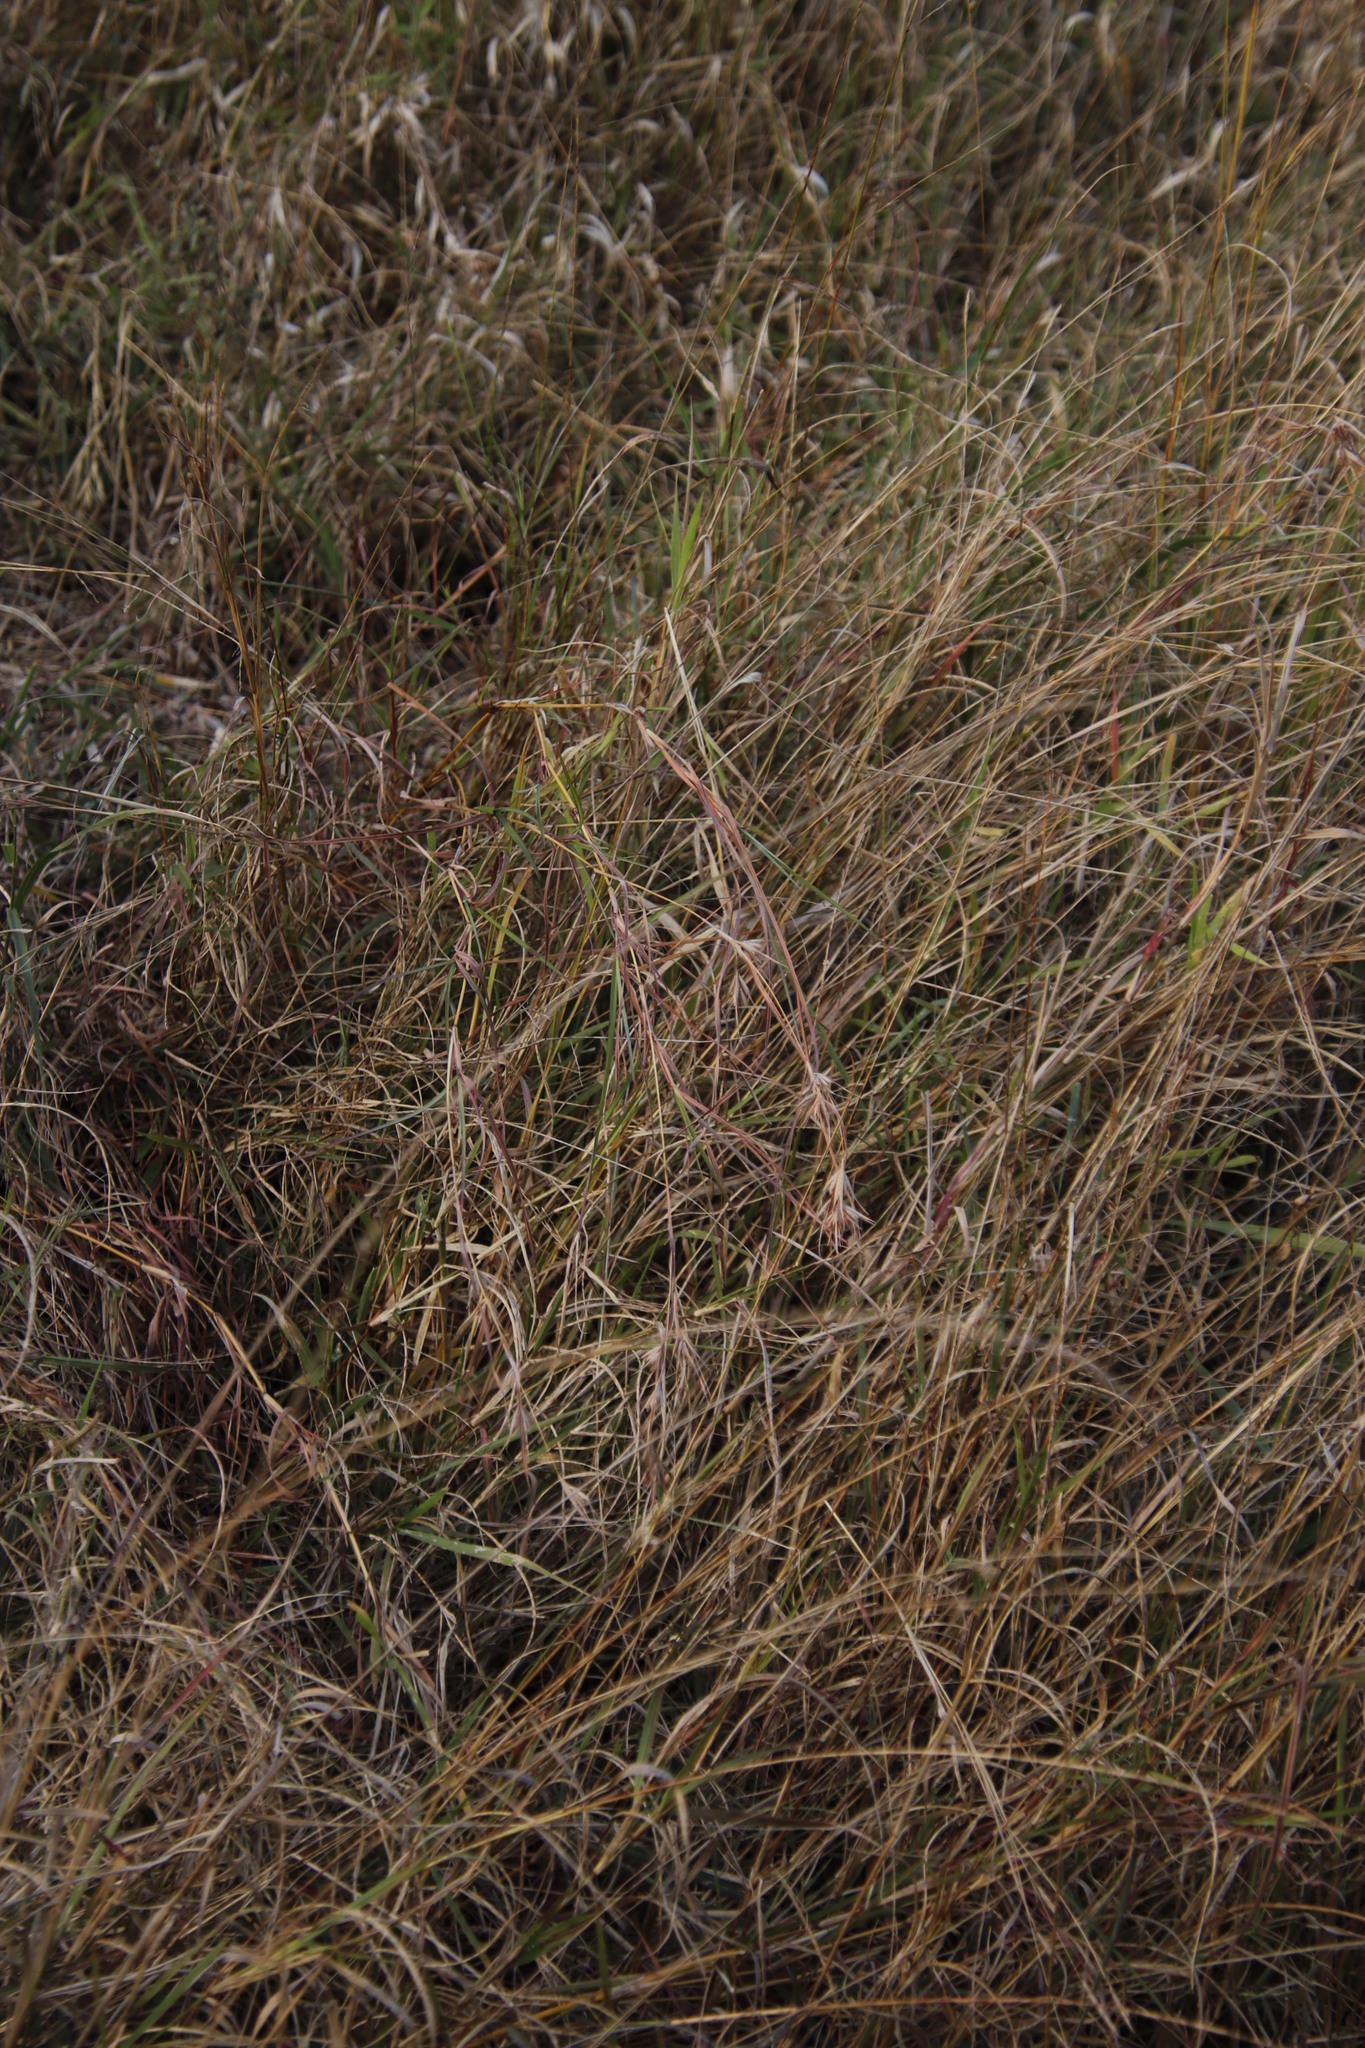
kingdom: Plantae
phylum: Tracheophyta
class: Liliopsida
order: Poales
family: Poaceae
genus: Themeda
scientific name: Themeda triandra
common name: Kangaroo grass
